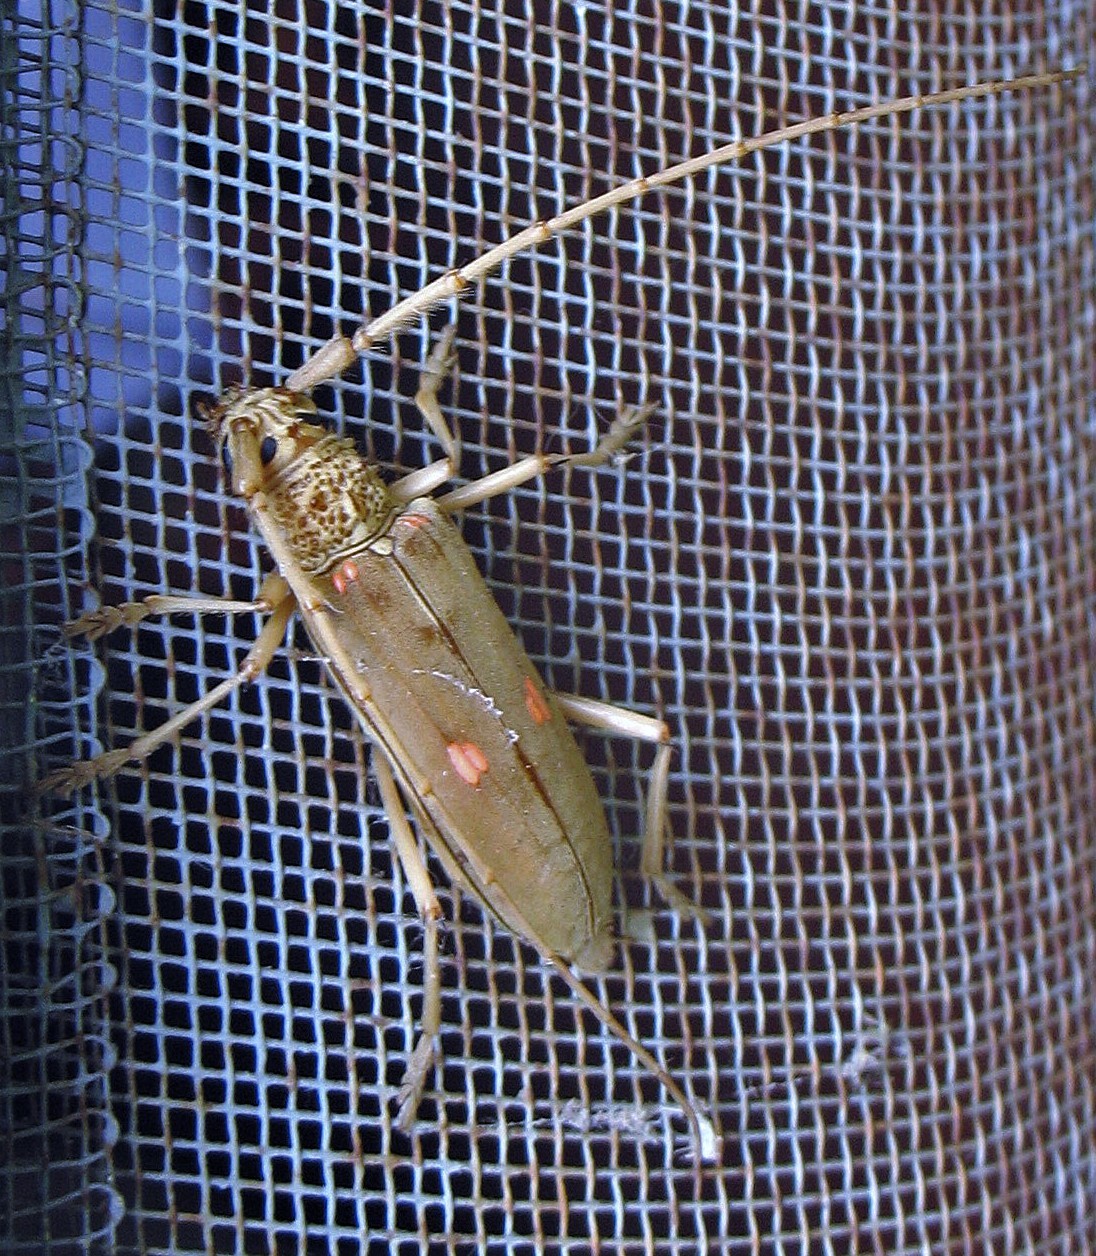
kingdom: Animalia
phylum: Arthropoda
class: Insecta
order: Coleoptera
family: Cerambycidae
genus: Susuacanga
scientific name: Susuacanga octoguttata
